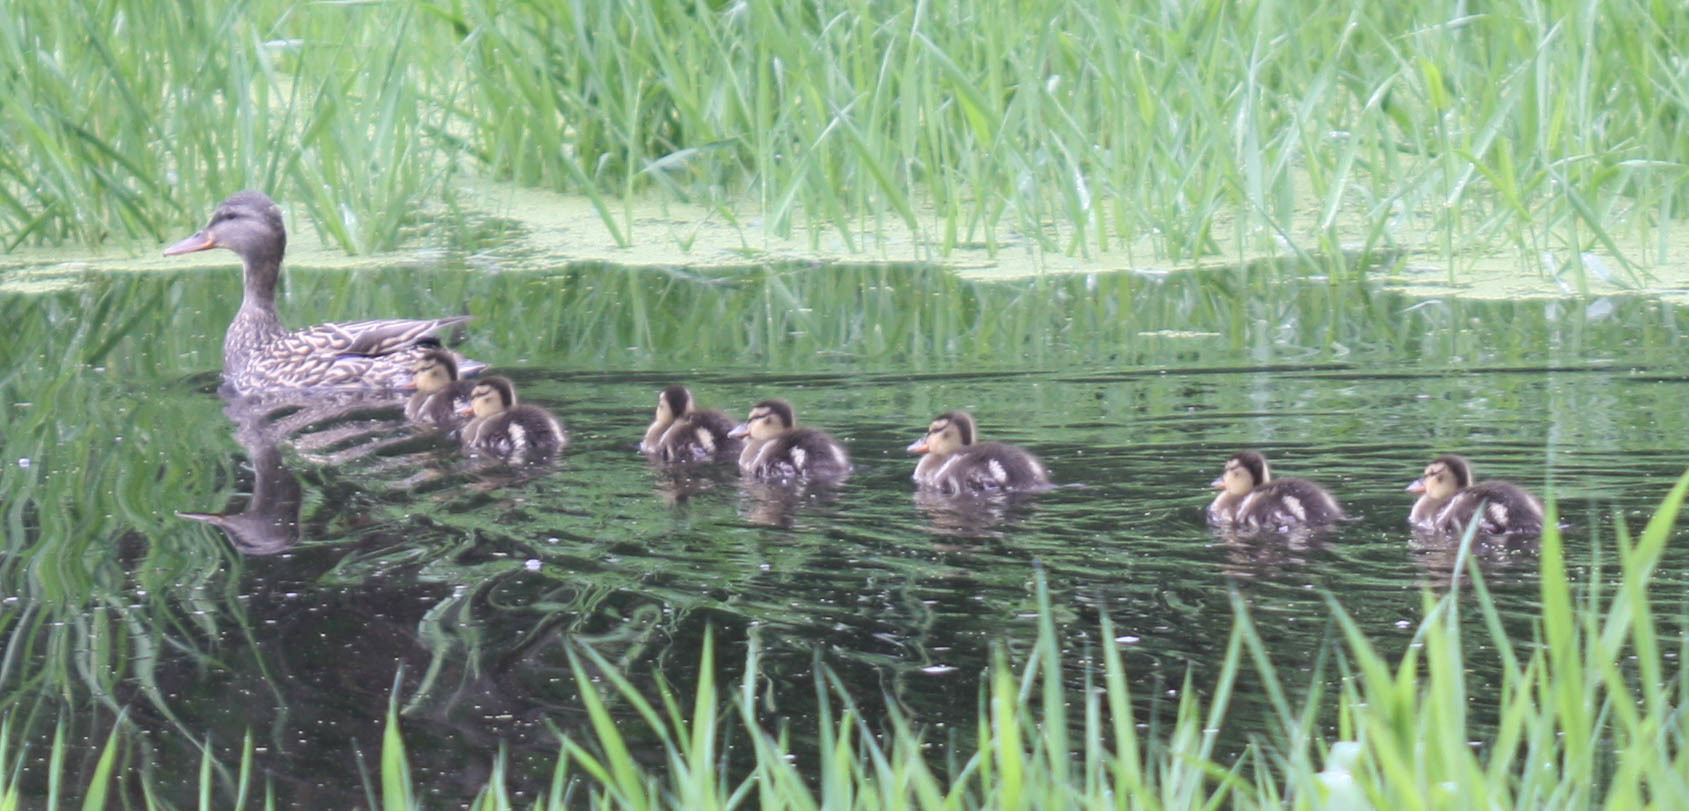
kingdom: Animalia
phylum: Chordata
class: Aves
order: Anseriformes
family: Anatidae
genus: Anas
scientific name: Anas platyrhynchos
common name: Mallard
